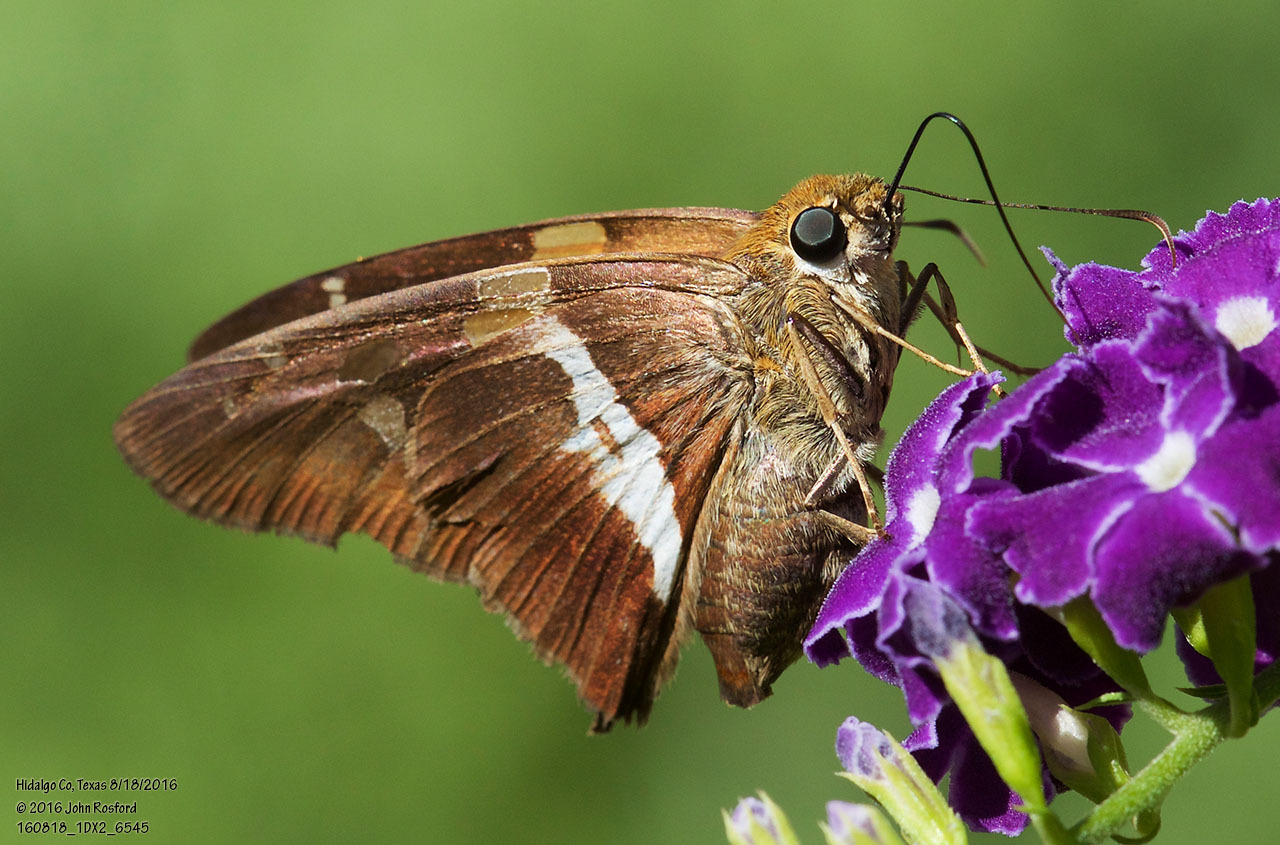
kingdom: Animalia
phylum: Arthropoda
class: Insecta
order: Lepidoptera
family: Hesperiidae
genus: Aguna
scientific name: Aguna asander
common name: Gold-spotted aguna
